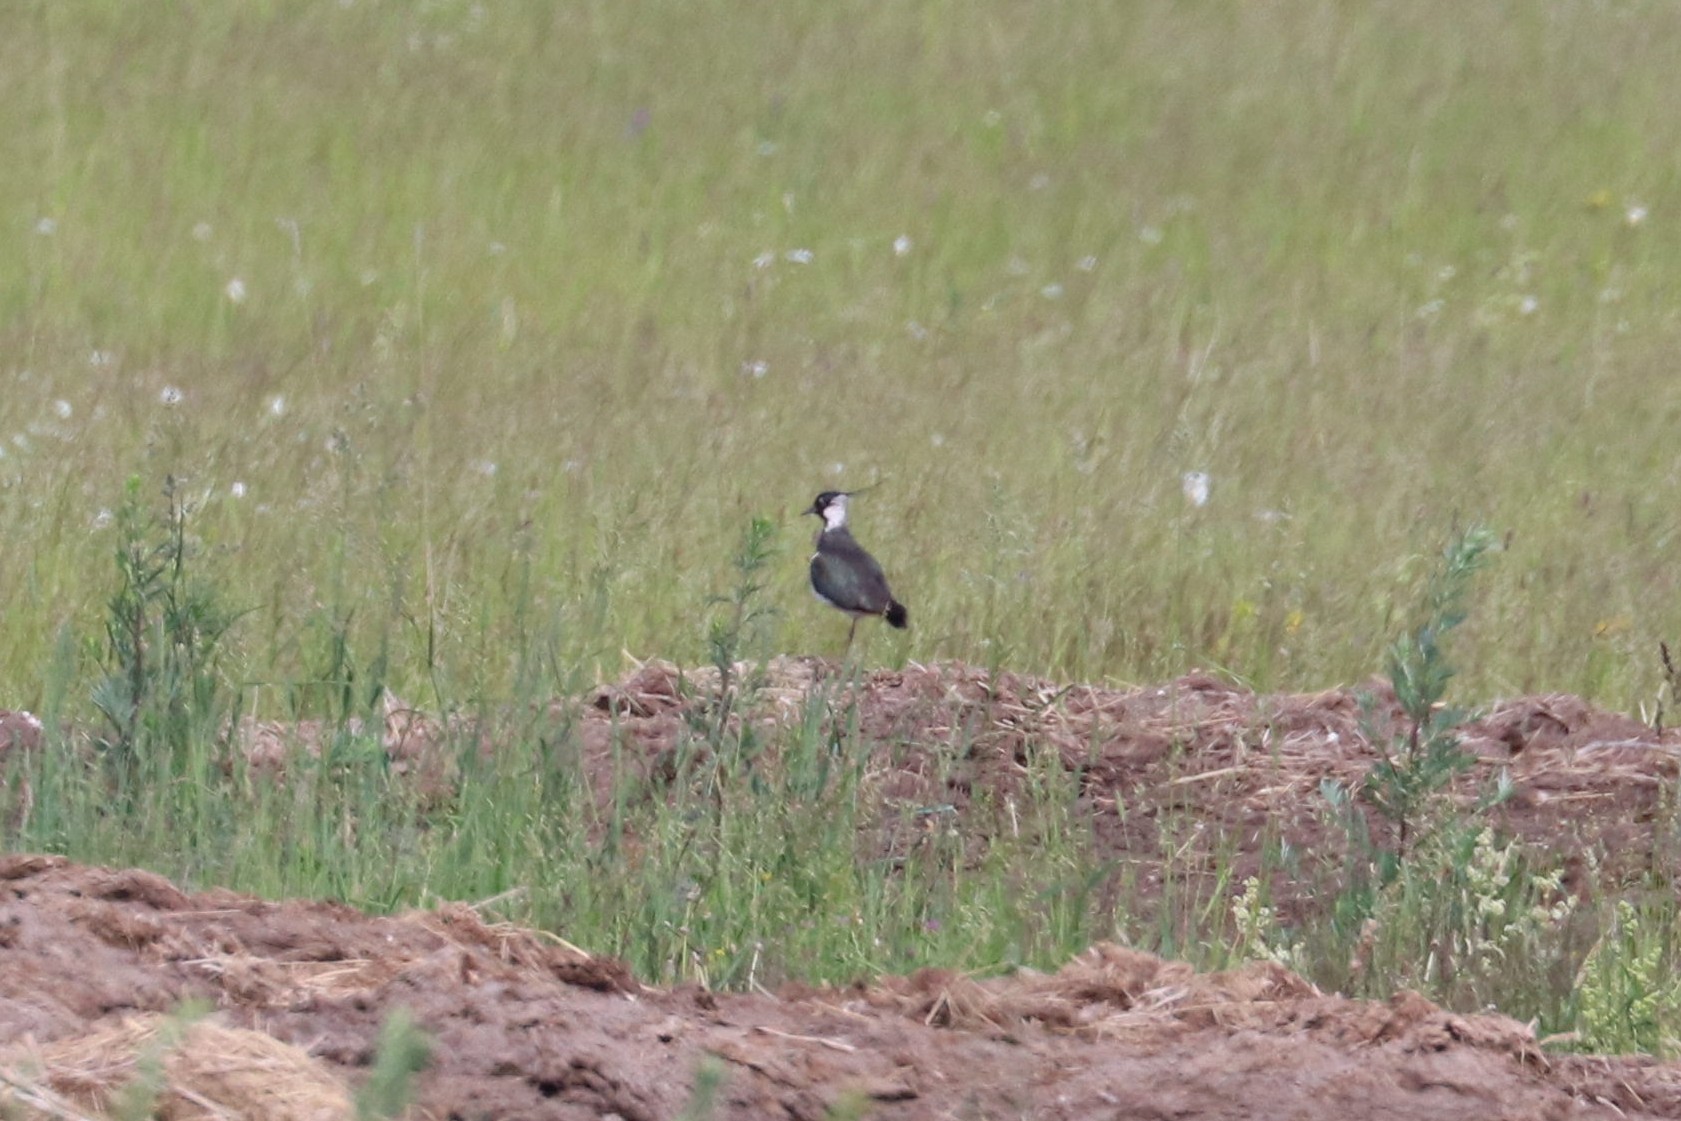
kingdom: Animalia
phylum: Chordata
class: Aves
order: Charadriiformes
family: Charadriidae
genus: Vanellus
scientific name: Vanellus vanellus
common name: Northern lapwing
